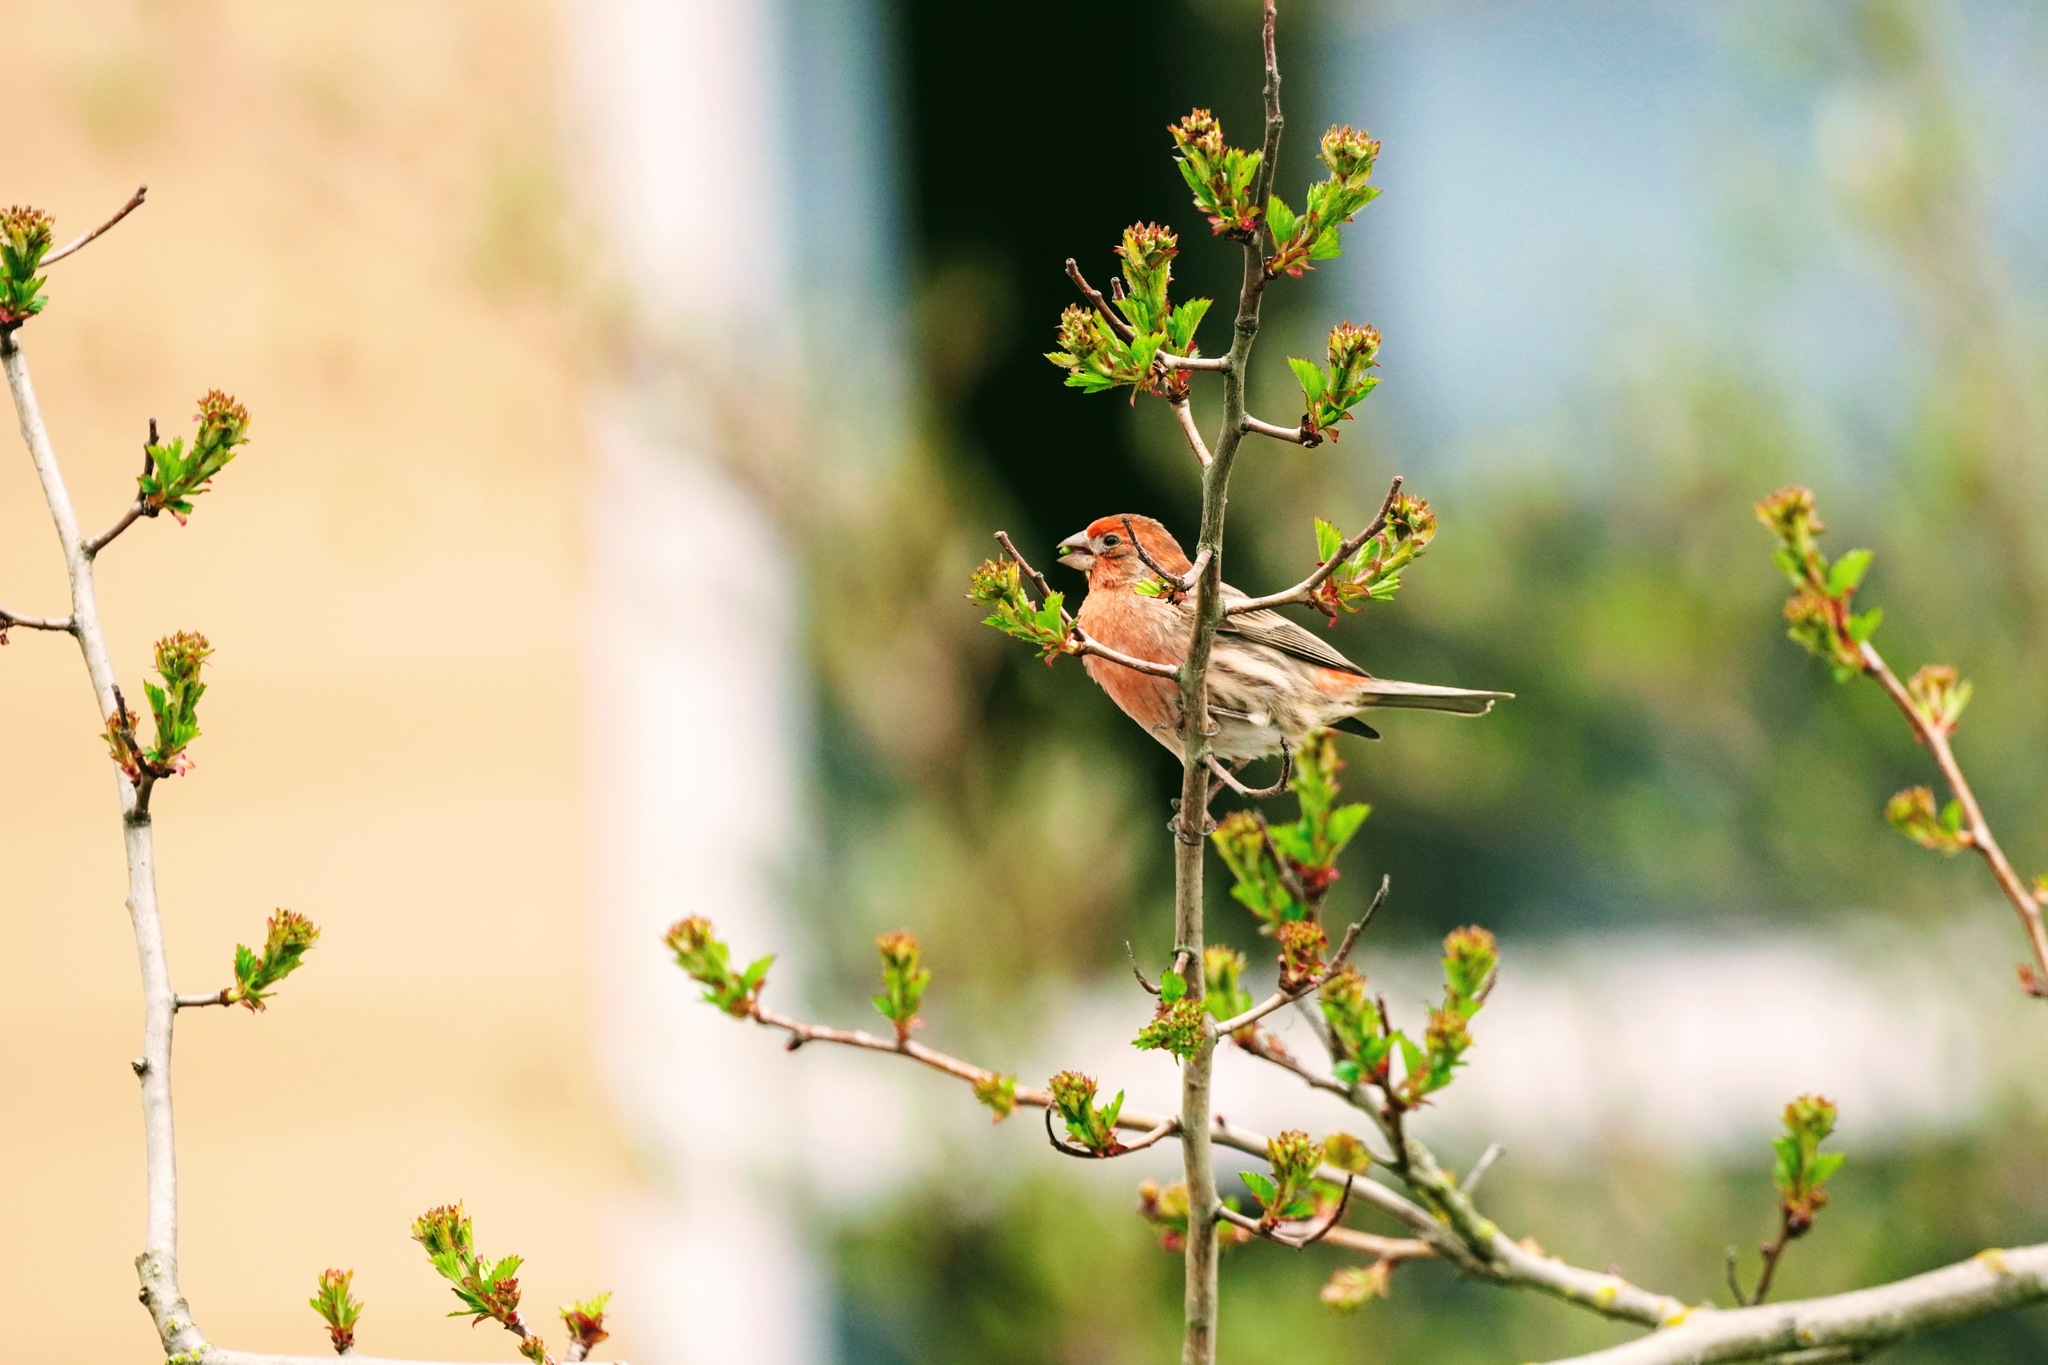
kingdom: Animalia
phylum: Chordata
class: Aves
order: Passeriformes
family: Fringillidae
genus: Haemorhous
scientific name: Haemorhous mexicanus
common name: House finch
